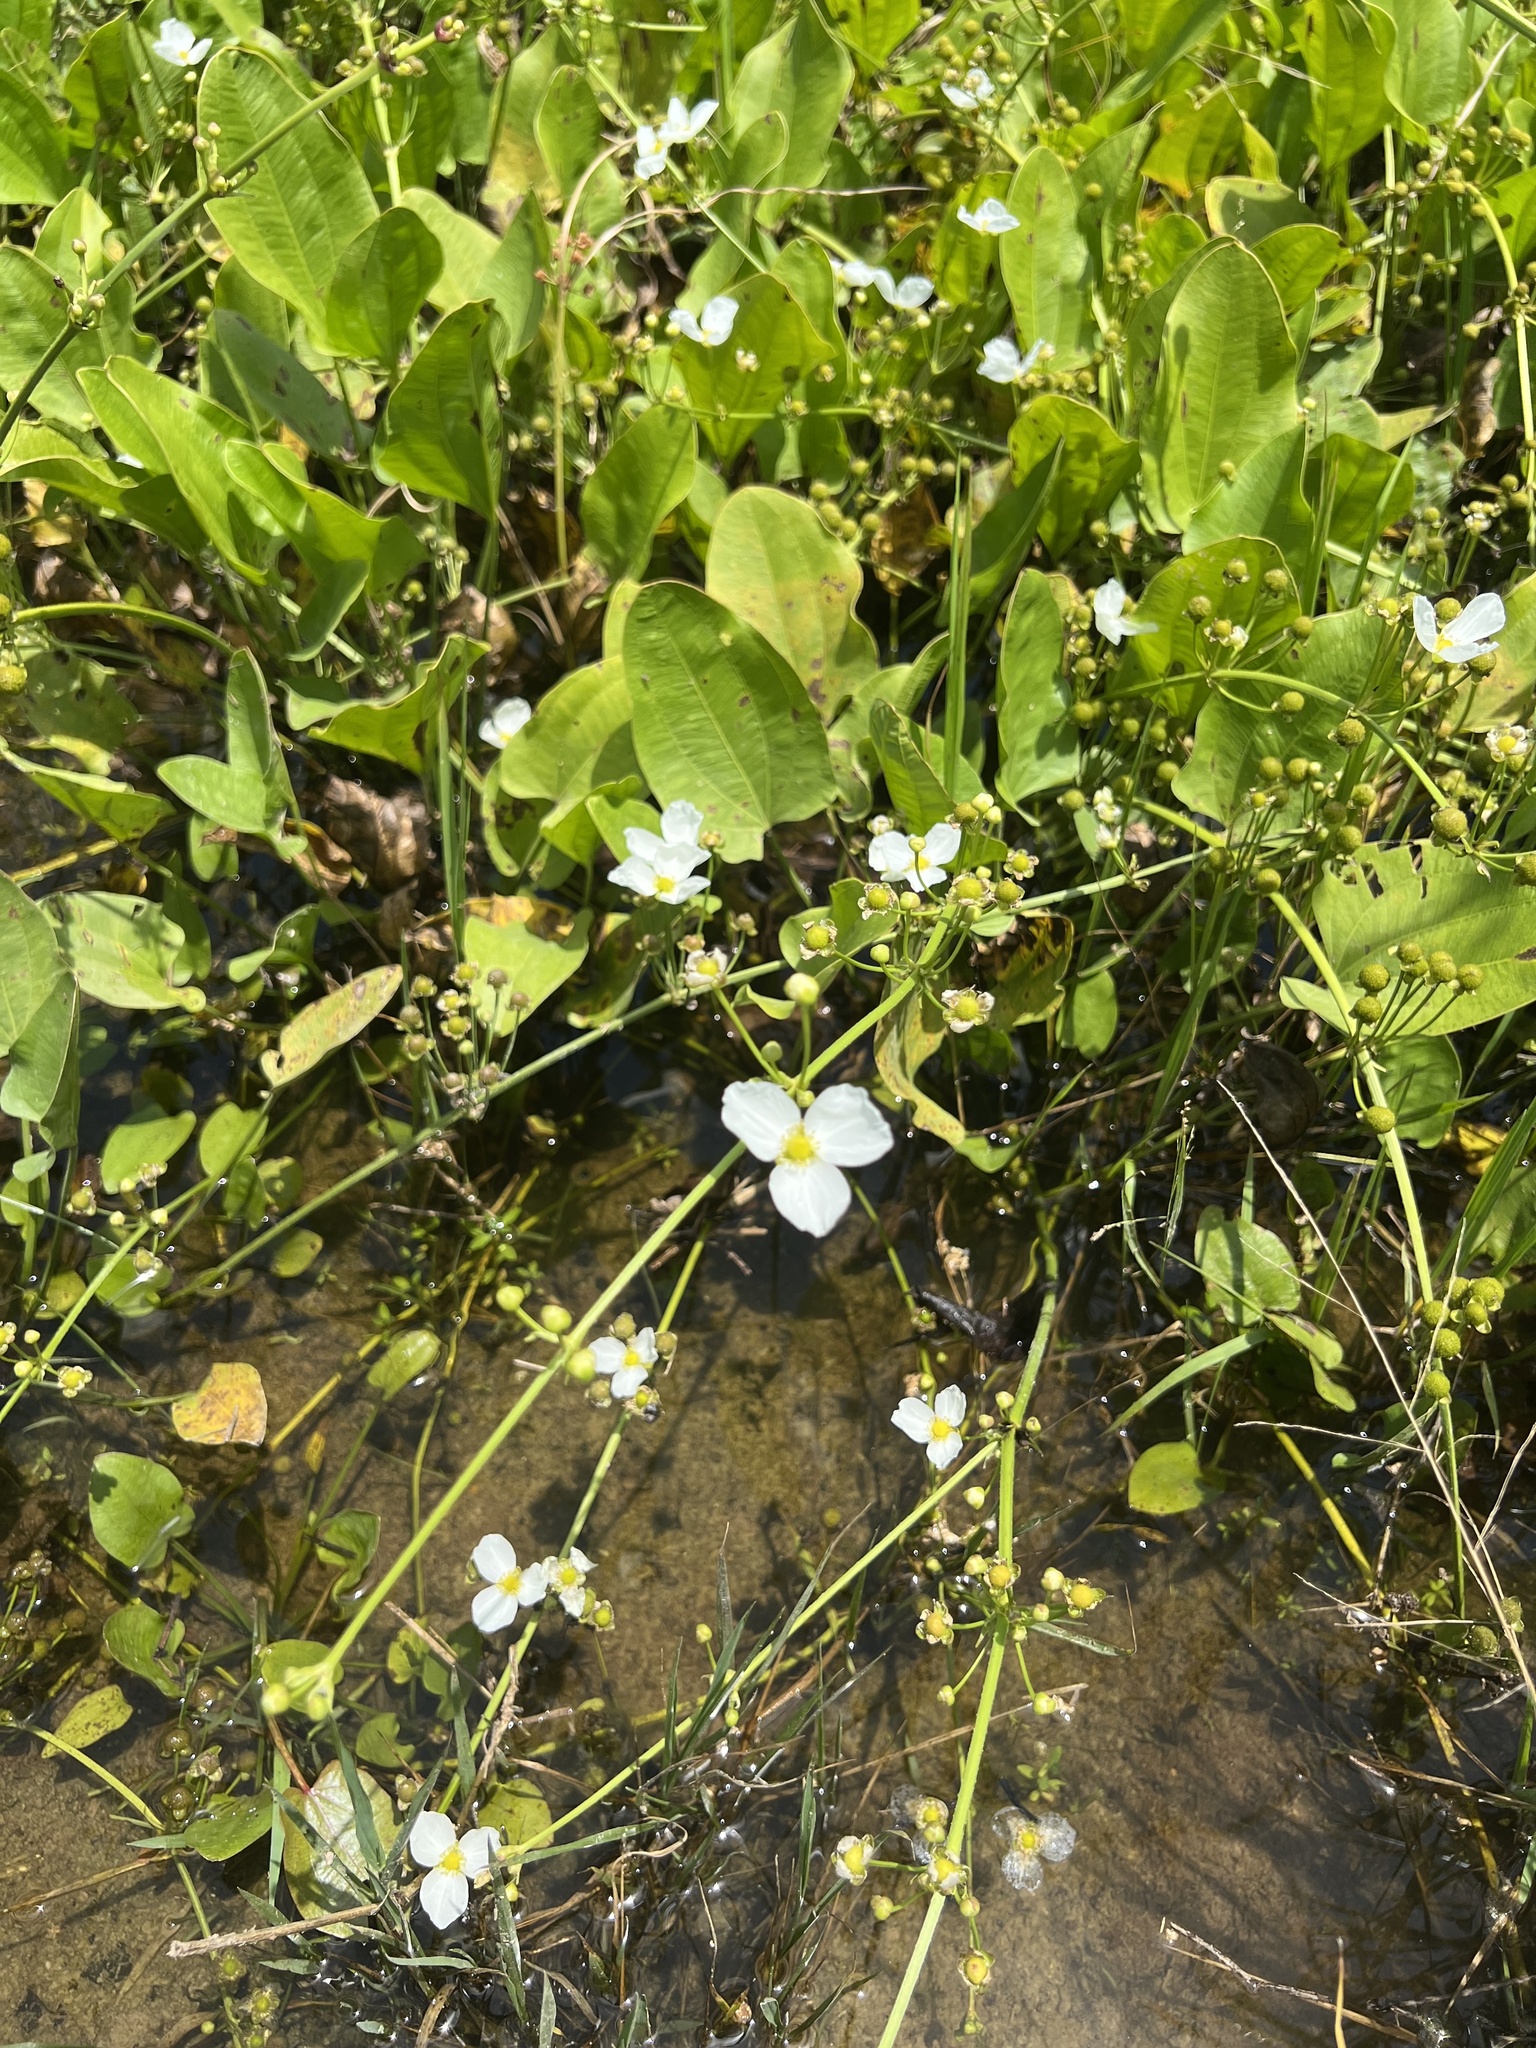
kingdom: Plantae
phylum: Tracheophyta
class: Liliopsida
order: Alismatales
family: Alismataceae
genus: Aquarius
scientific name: Aquarius cordifolius
